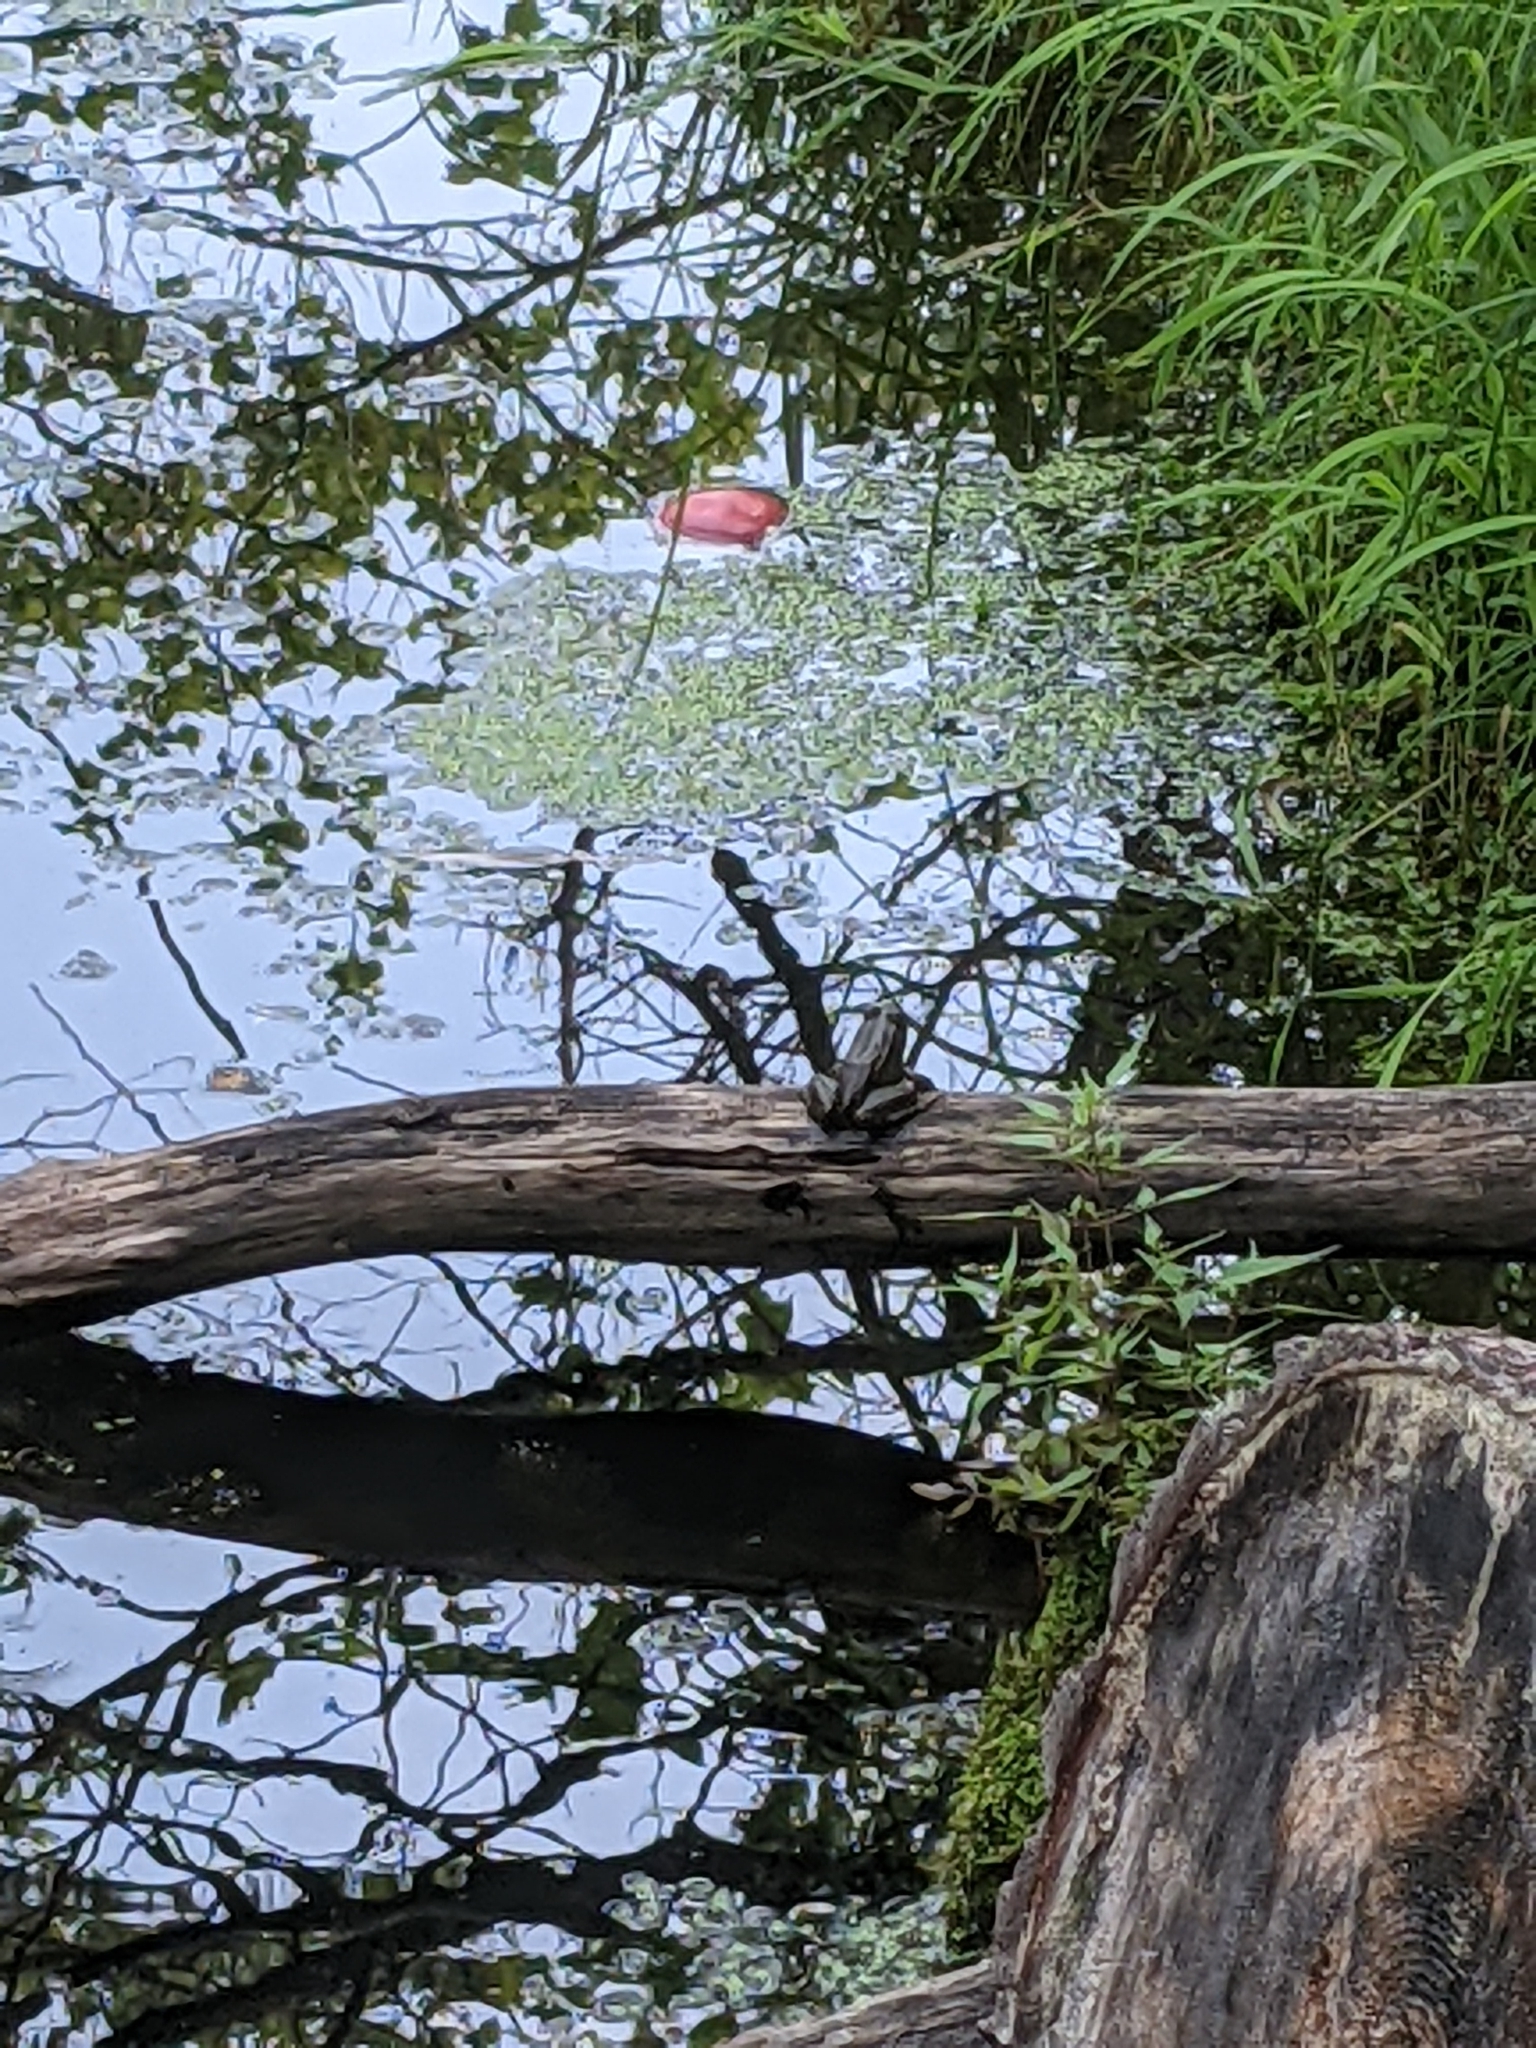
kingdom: Animalia
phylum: Chordata
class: Amphibia
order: Anura
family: Ranidae
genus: Lithobates
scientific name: Lithobates clamitans
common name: Green frog
